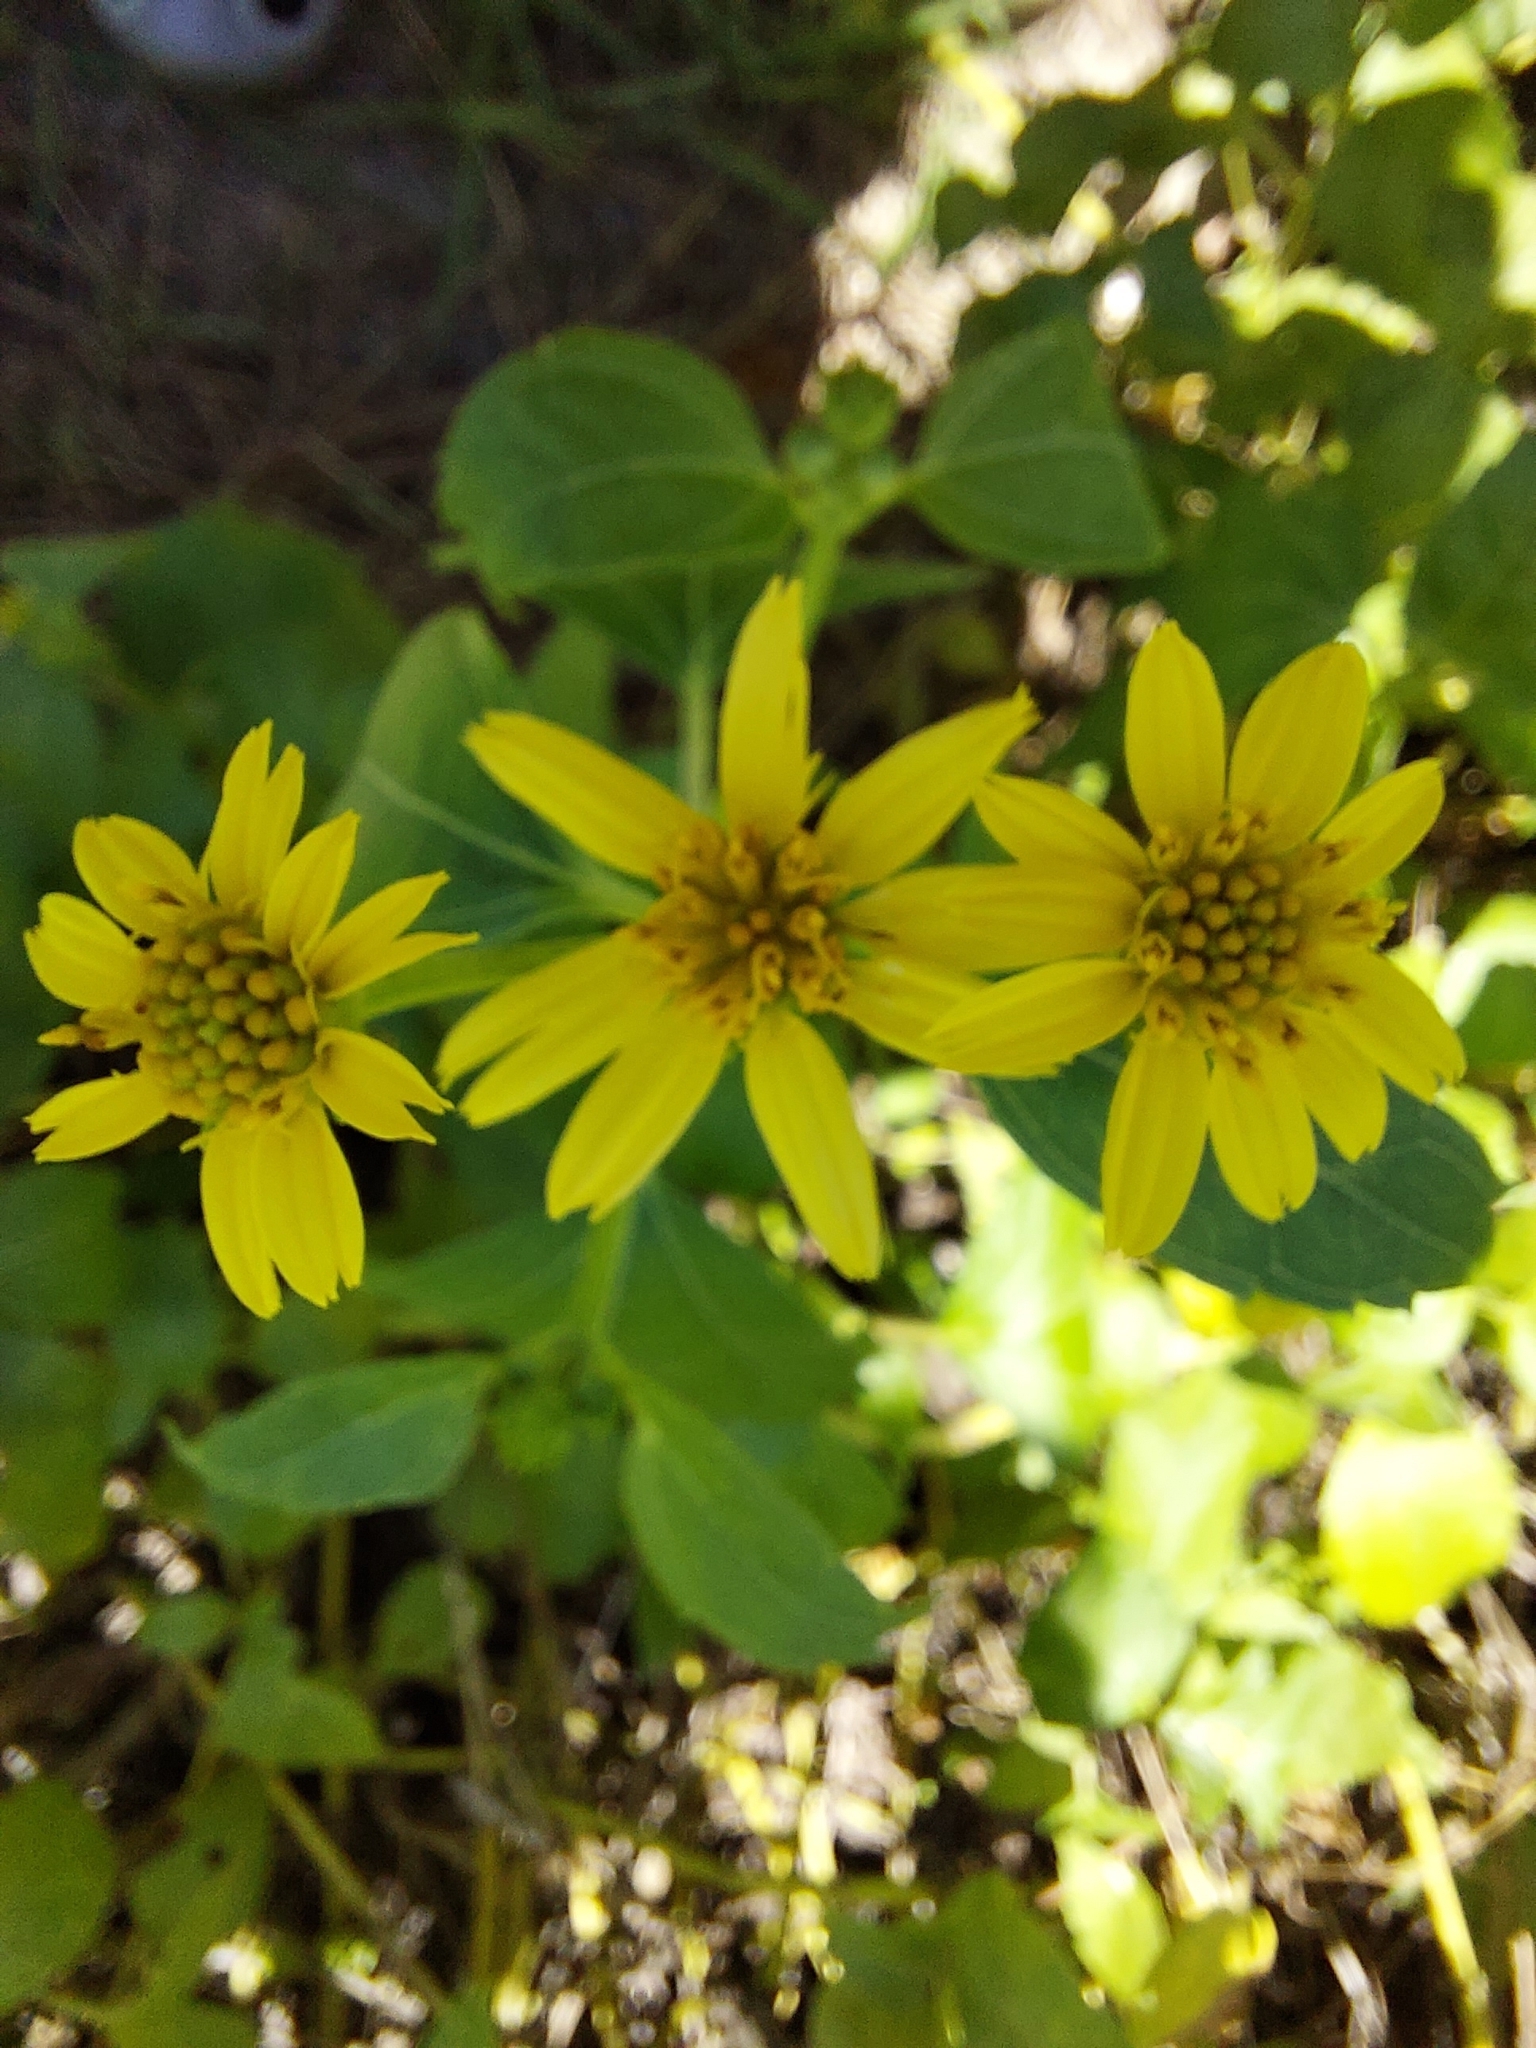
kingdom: Plantae
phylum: Tracheophyta
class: Magnoliopsida
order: Asterales
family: Asteraceae
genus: Wollastonia
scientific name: Wollastonia biflora
